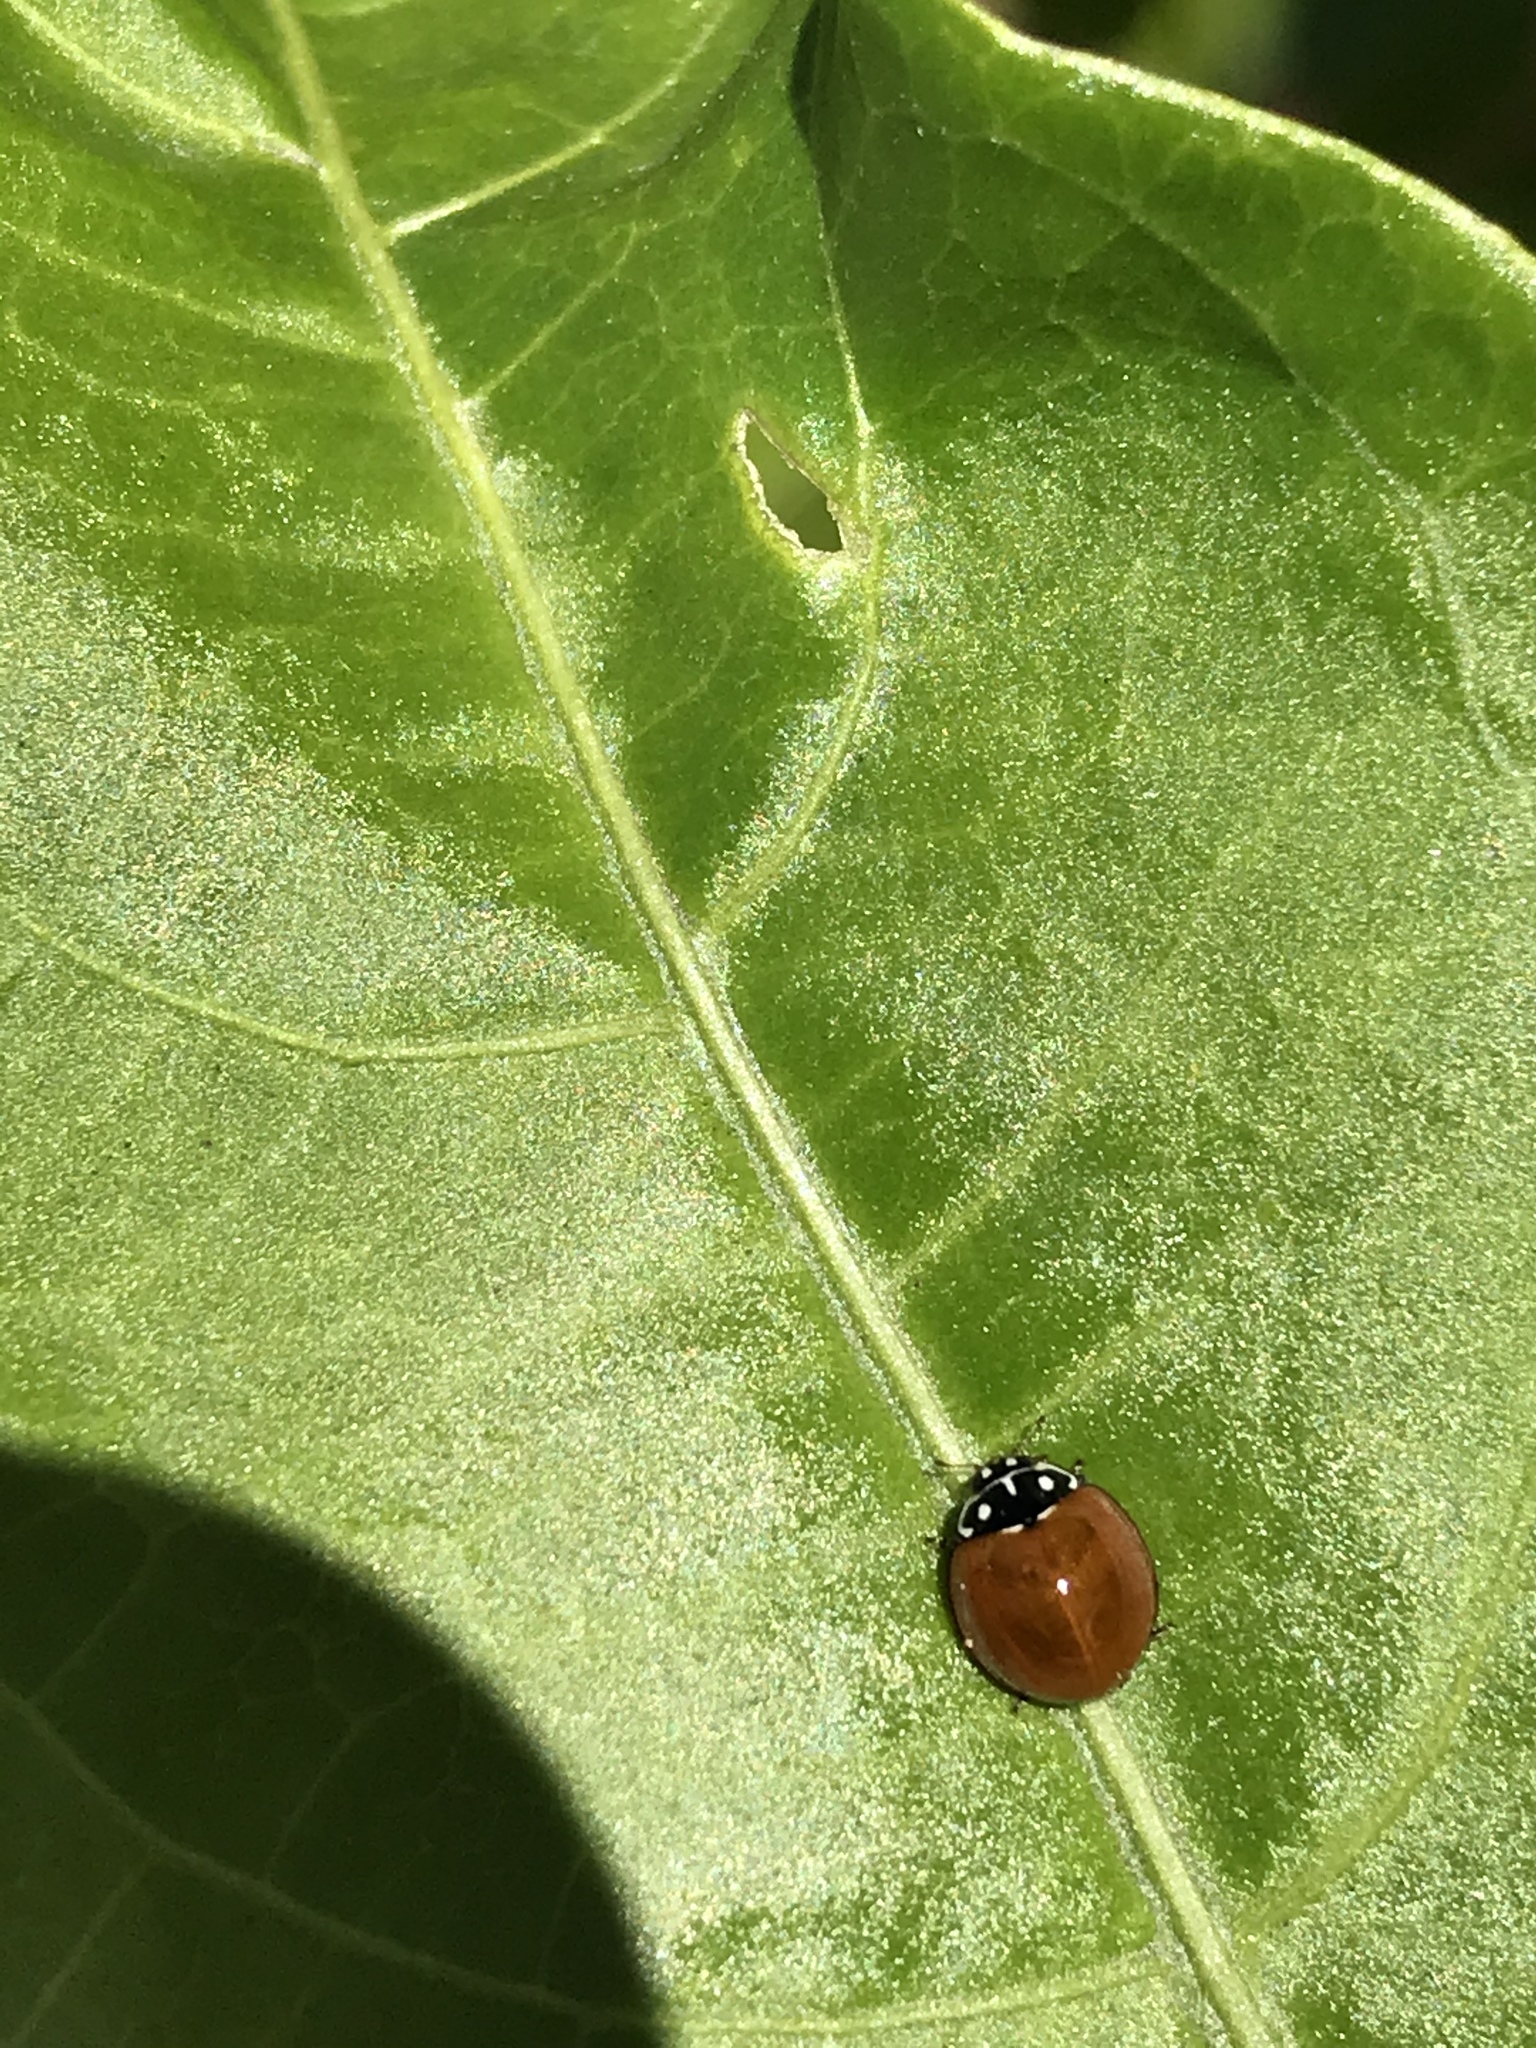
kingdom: Animalia
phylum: Arthropoda
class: Insecta
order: Coleoptera
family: Coccinellidae
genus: Cycloneda
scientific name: Cycloneda sanguinea
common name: Ladybird beetle
